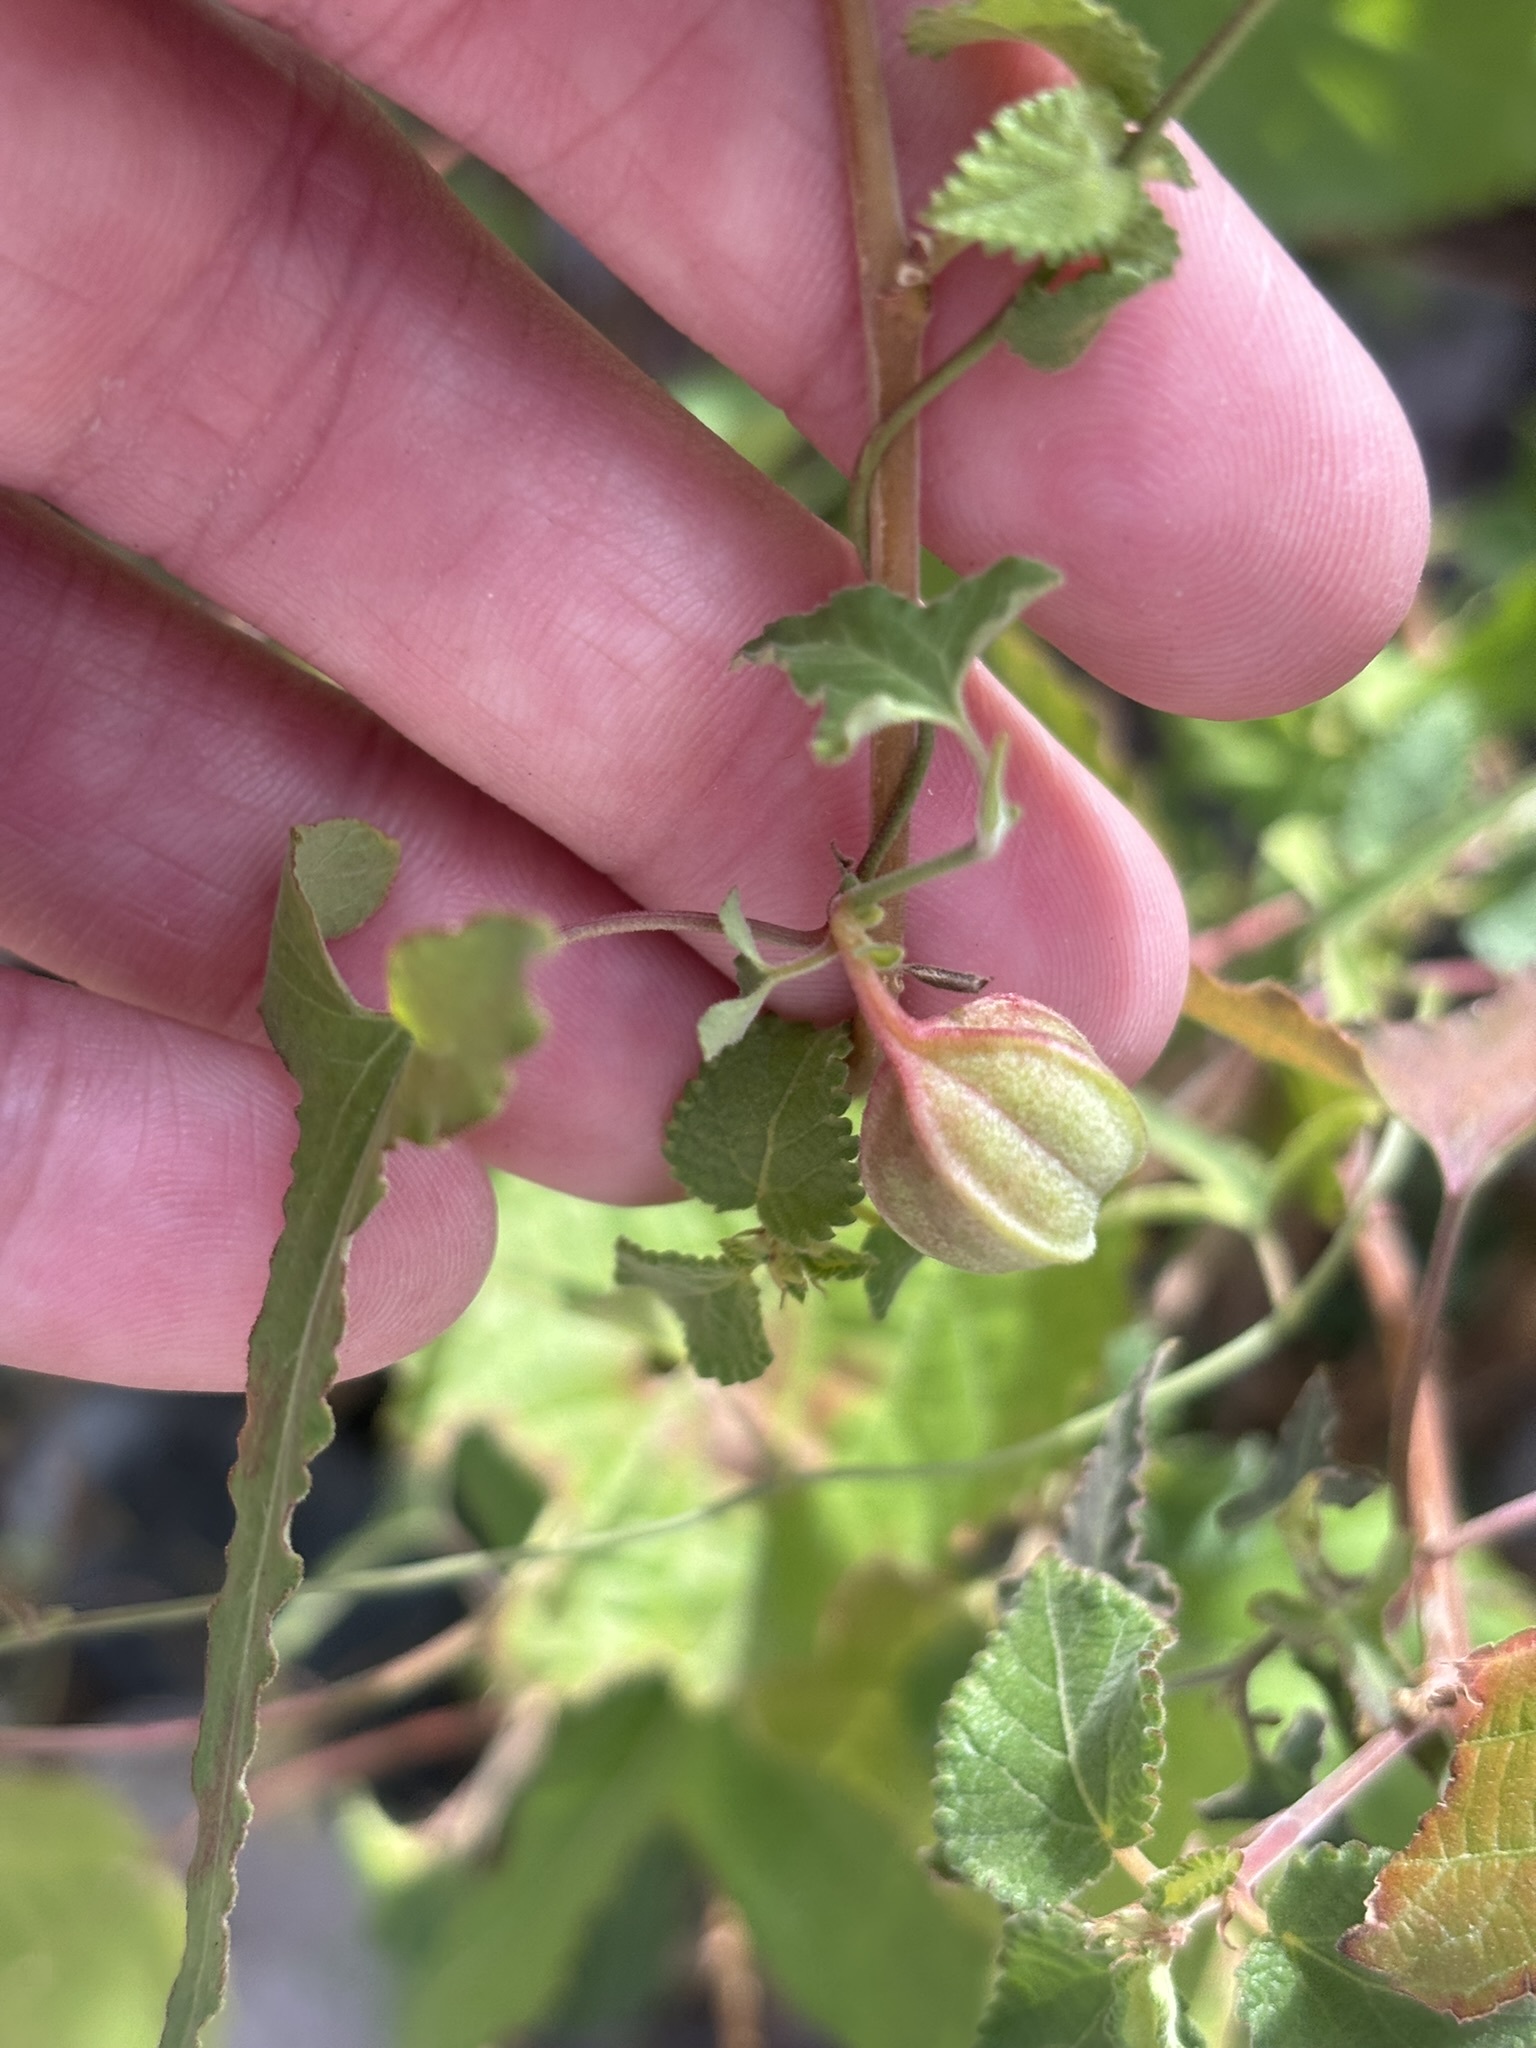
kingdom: Plantae
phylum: Tracheophyta
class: Magnoliopsida
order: Piperales
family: Aristolochiaceae
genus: Aristolochia
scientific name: Aristolochia watsonii
